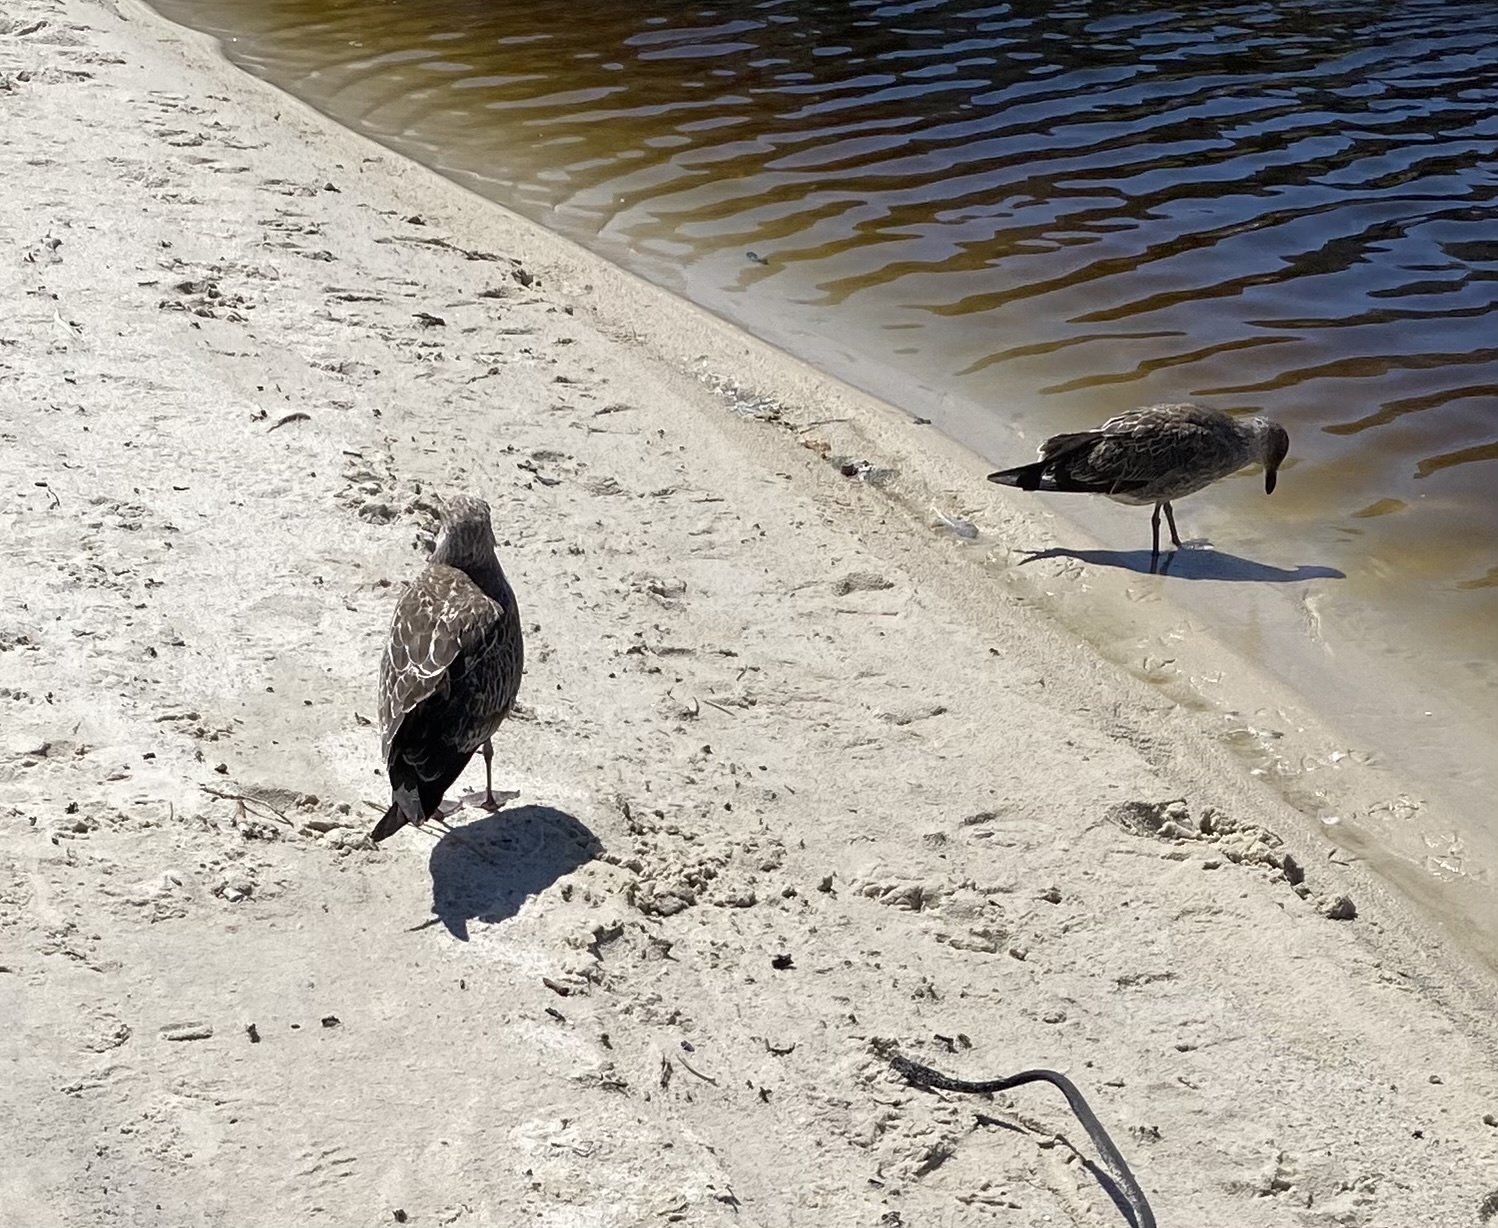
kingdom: Animalia
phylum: Chordata
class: Aves
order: Charadriiformes
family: Laridae
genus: Larus
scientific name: Larus dominicanus
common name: Kelp gull
